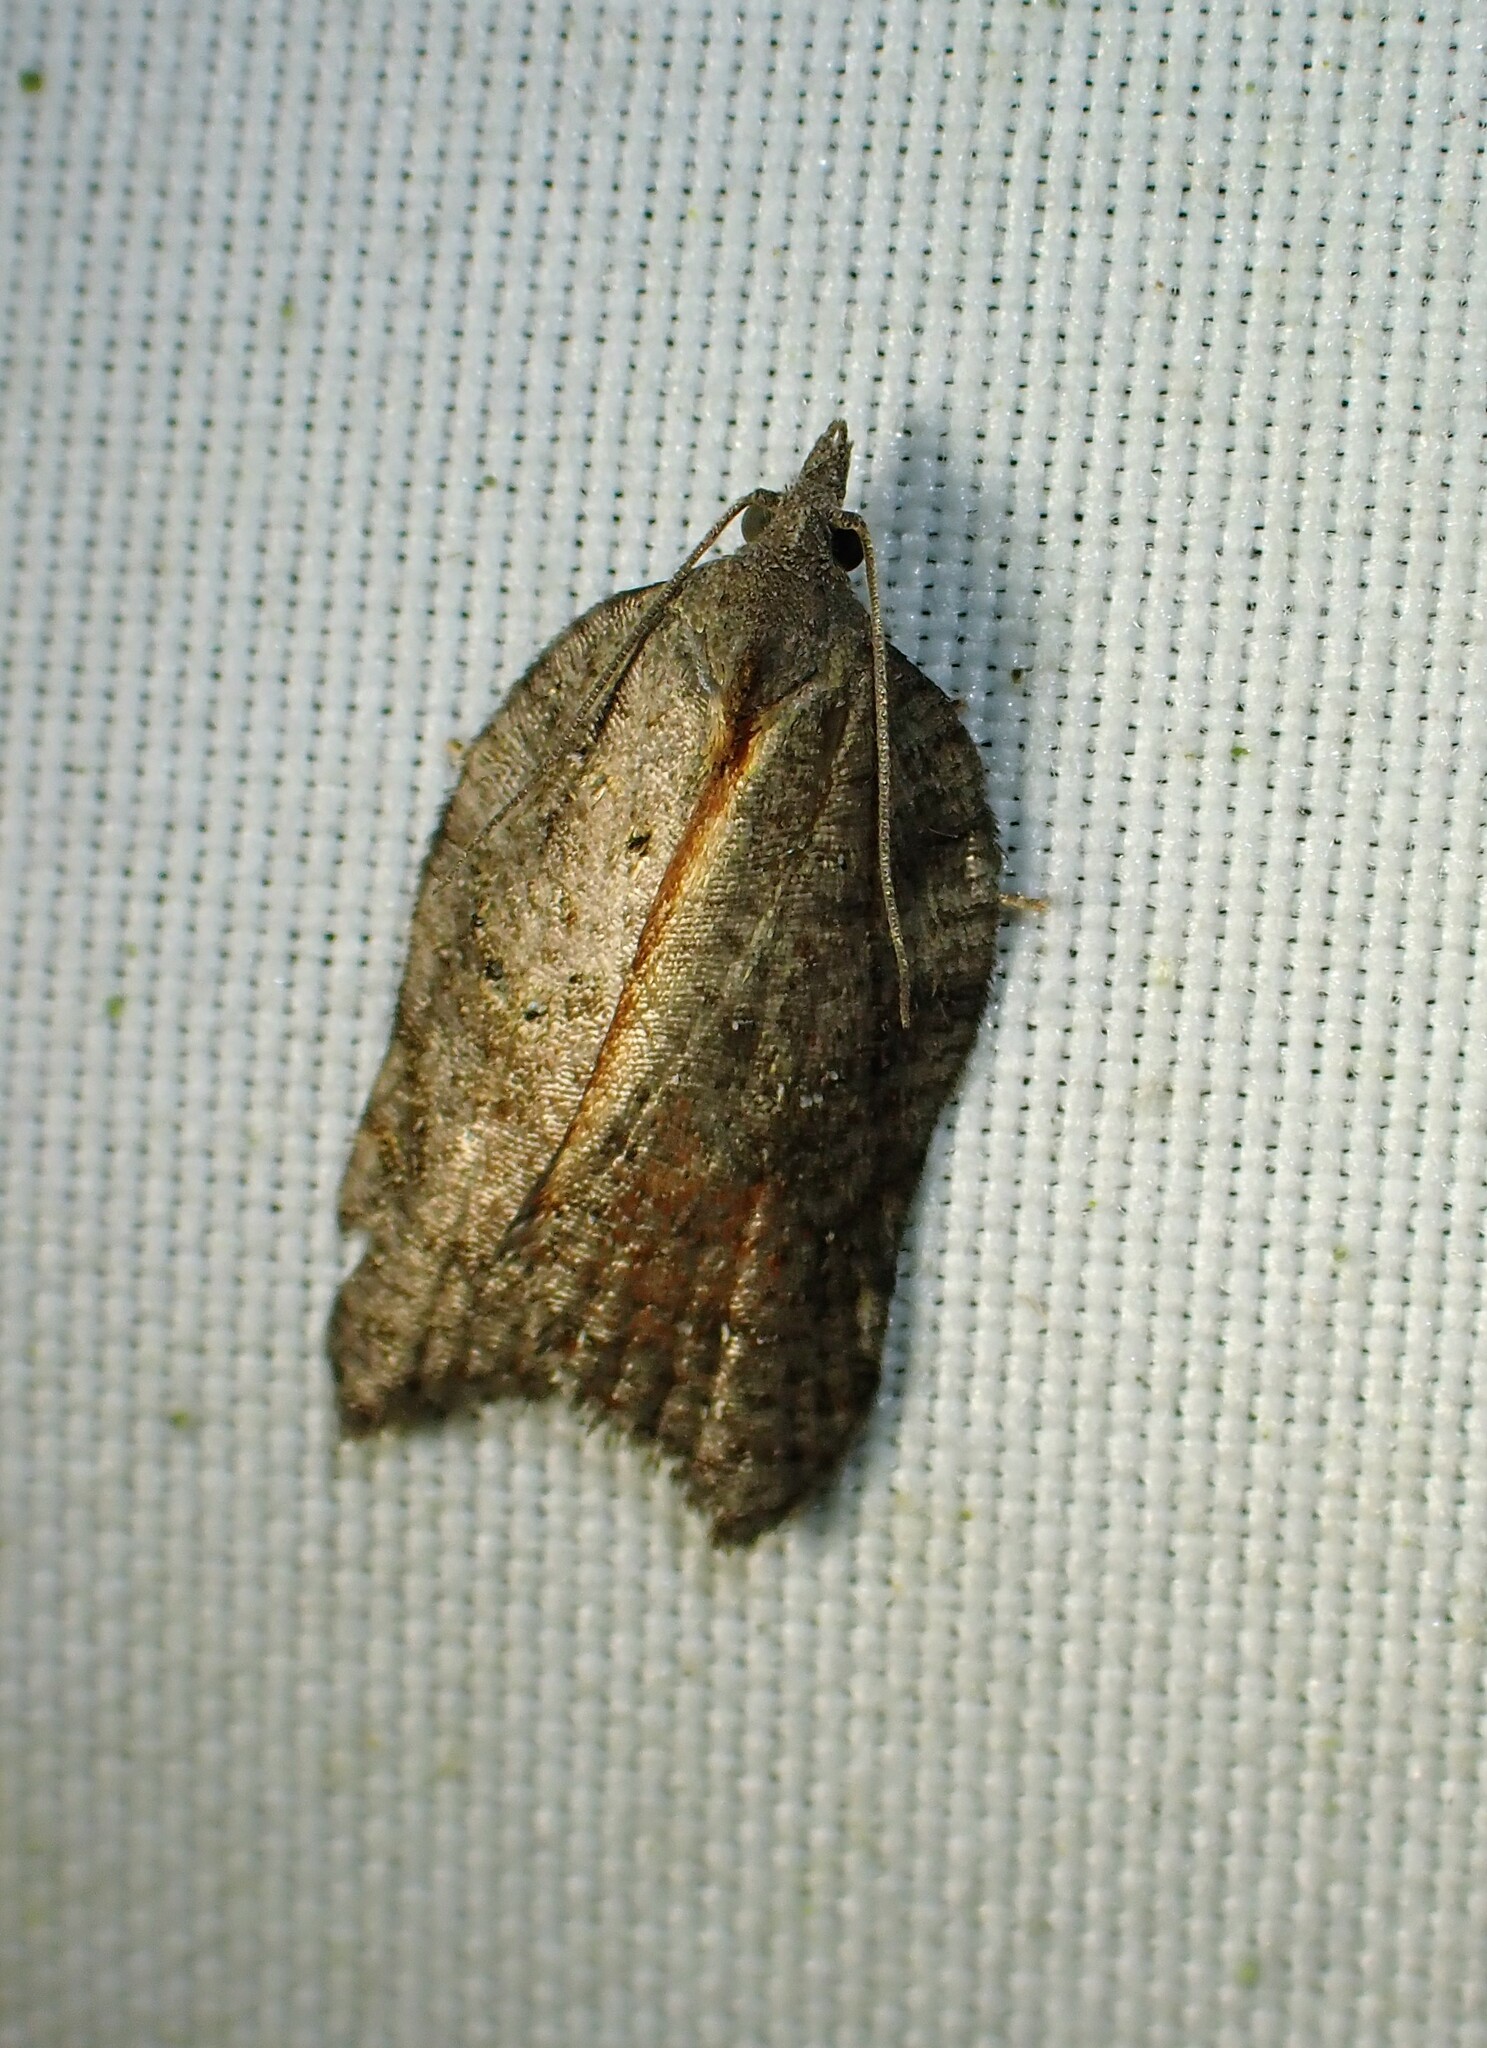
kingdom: Animalia
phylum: Arthropoda
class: Insecta
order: Lepidoptera
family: Tortricidae
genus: Acleris
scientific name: Acleris effractana
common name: Hook-winged tortrix moth
